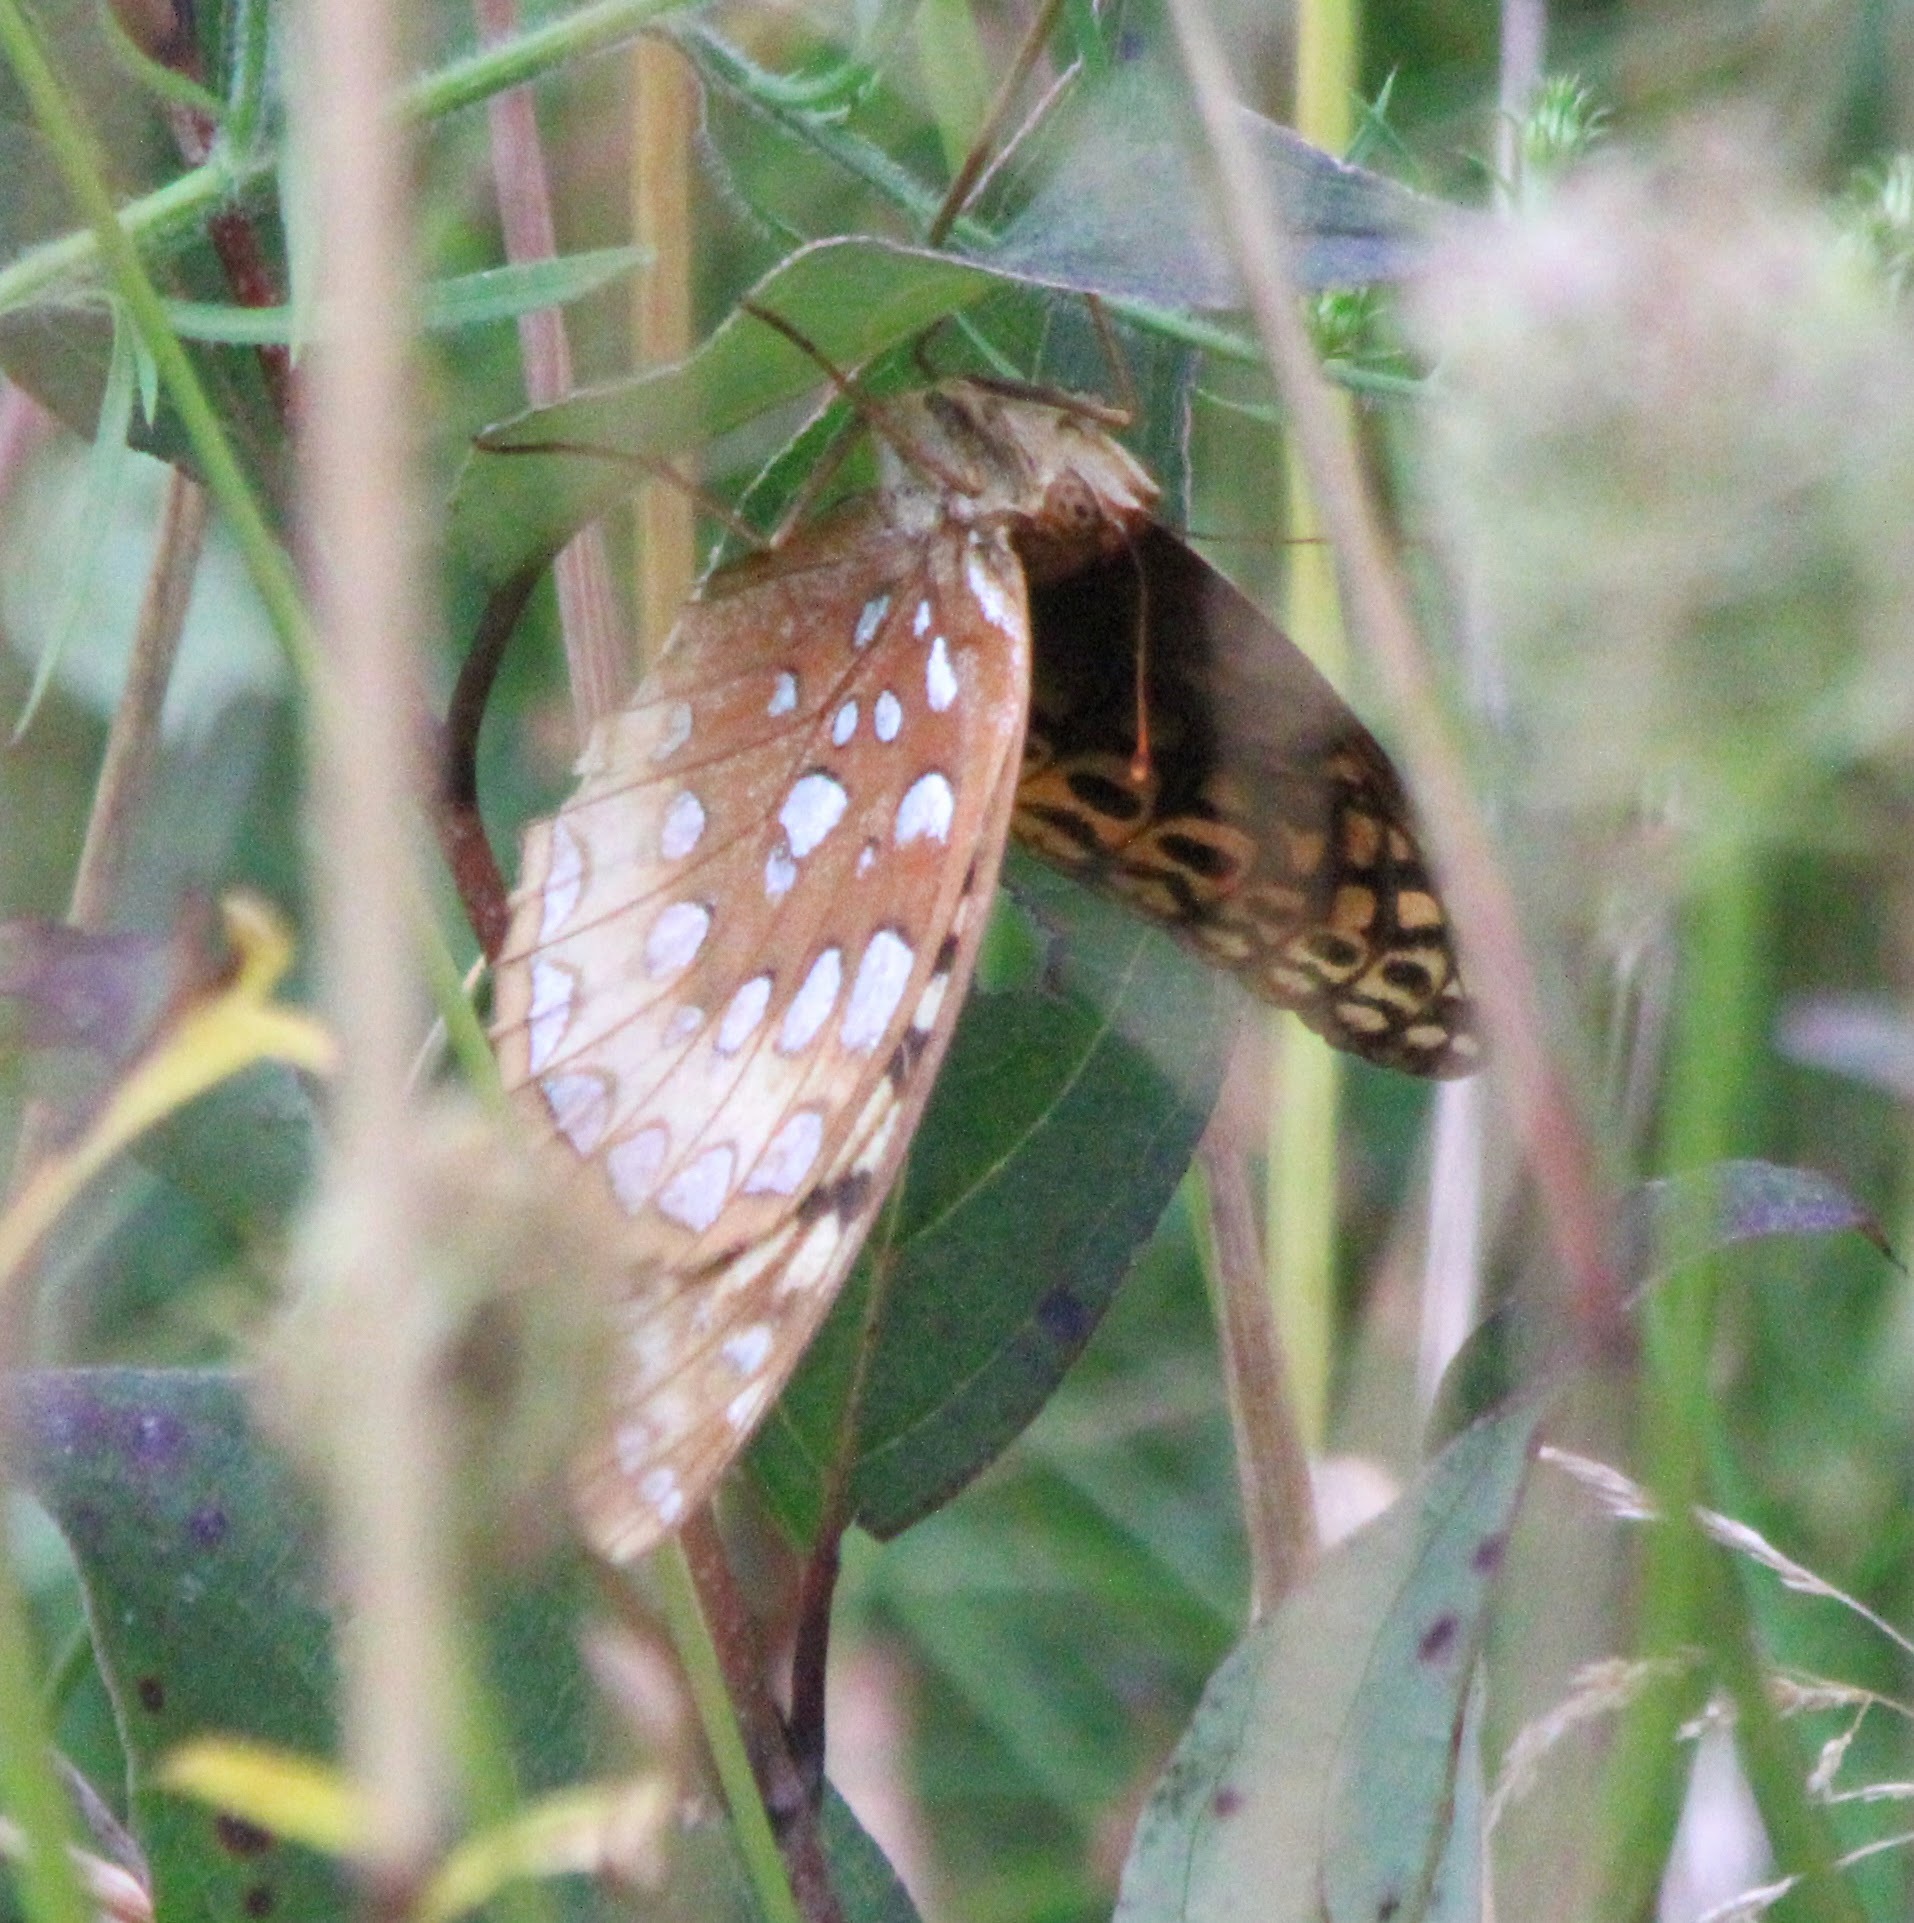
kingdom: Animalia
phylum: Arthropoda
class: Insecta
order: Lepidoptera
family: Nymphalidae
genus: Speyeria
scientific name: Speyeria cybele
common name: Great spangled fritillary
